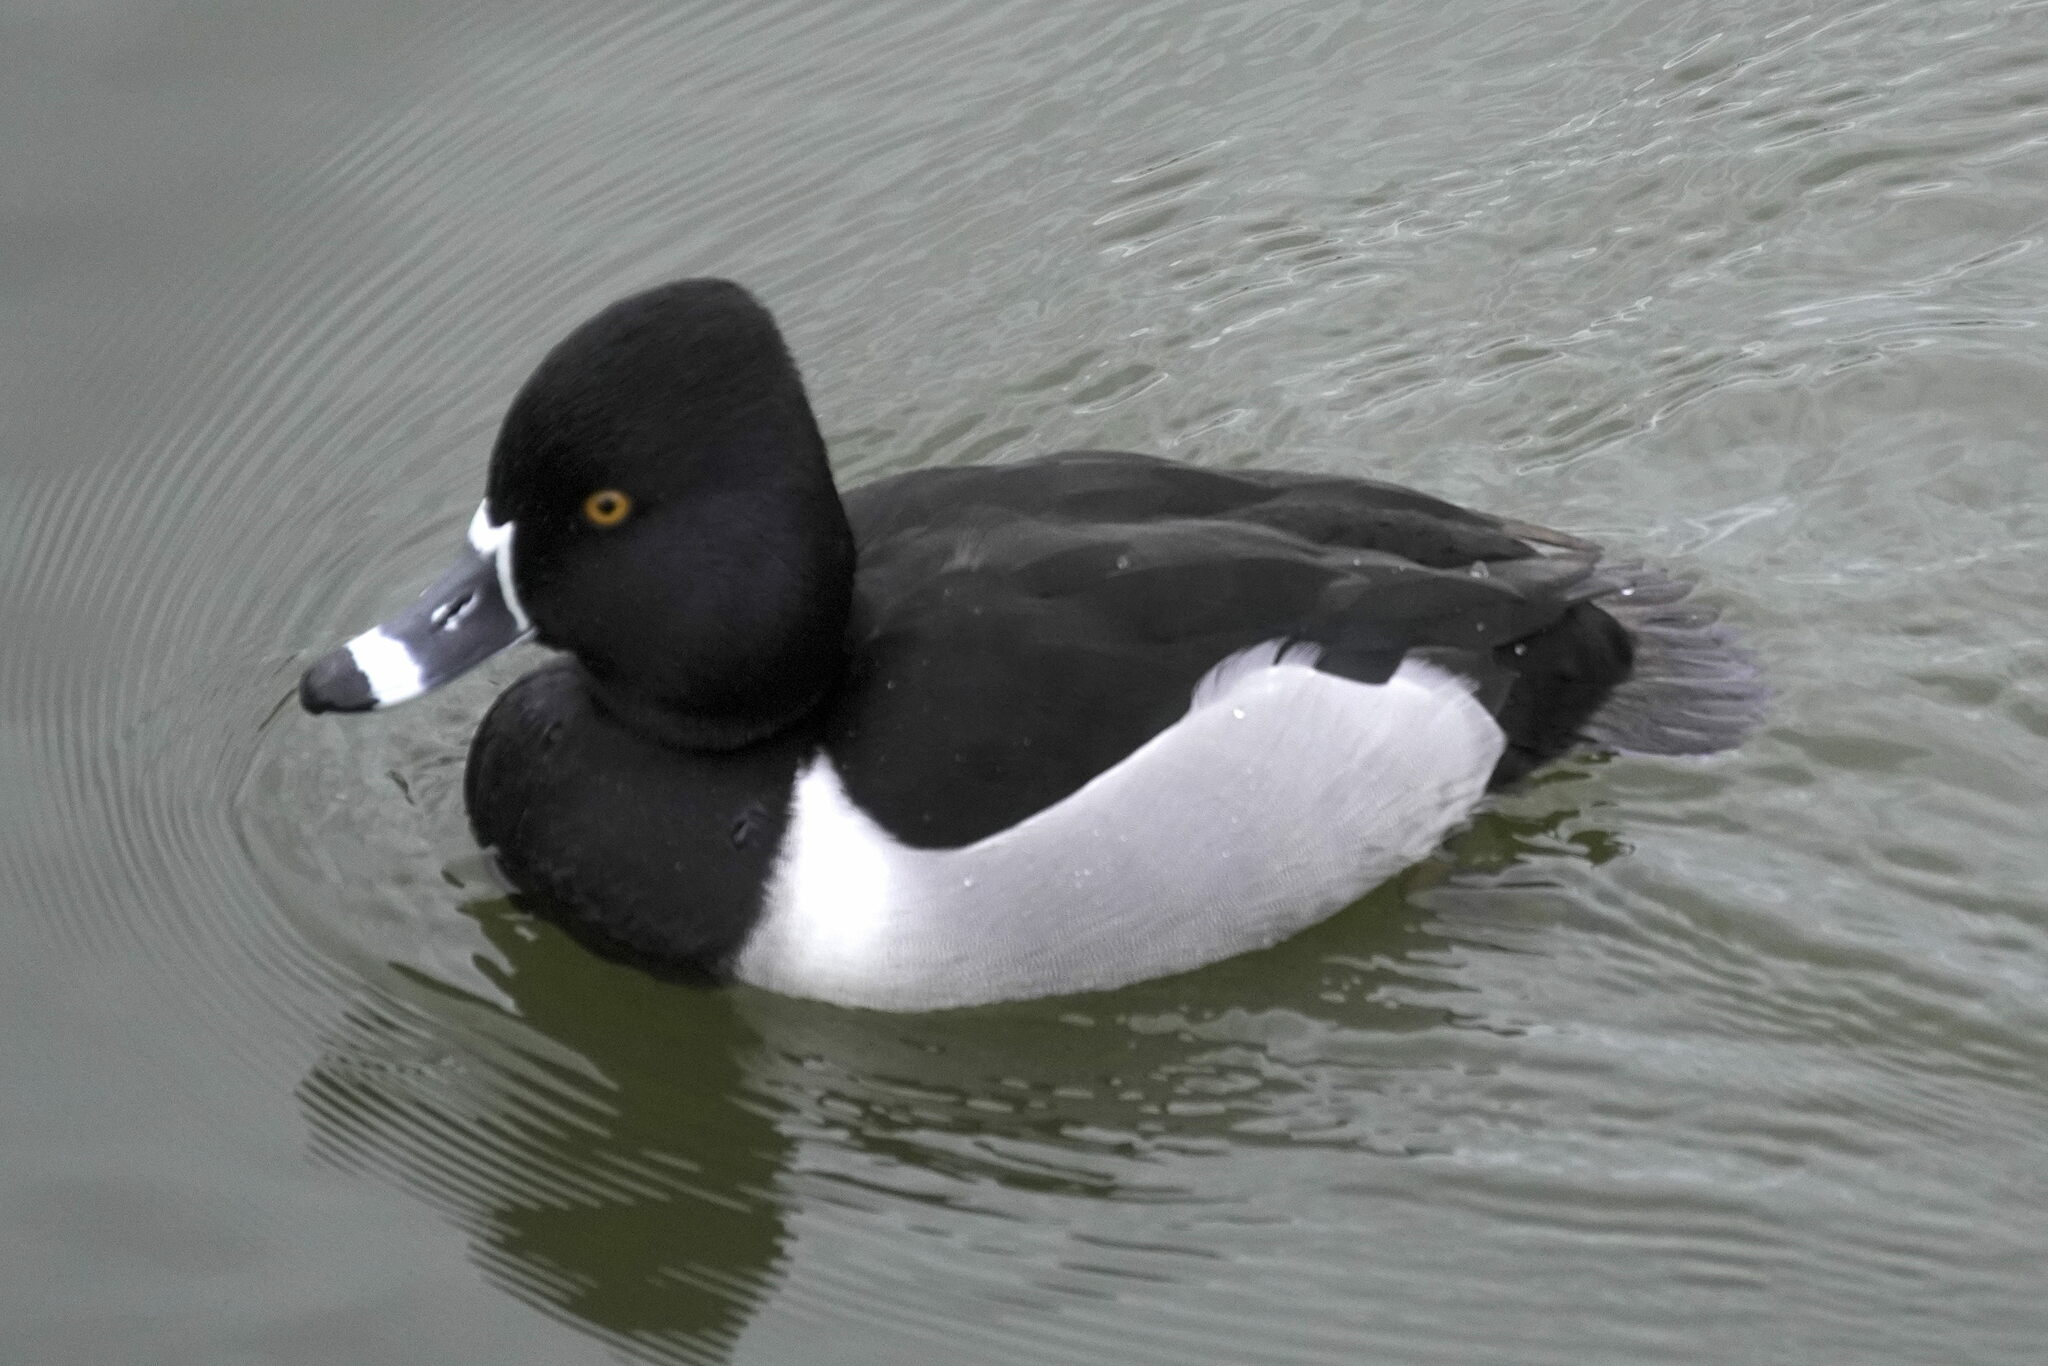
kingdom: Animalia
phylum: Chordata
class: Aves
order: Anseriformes
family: Anatidae
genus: Aythya
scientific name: Aythya collaris
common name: Ring-necked duck
